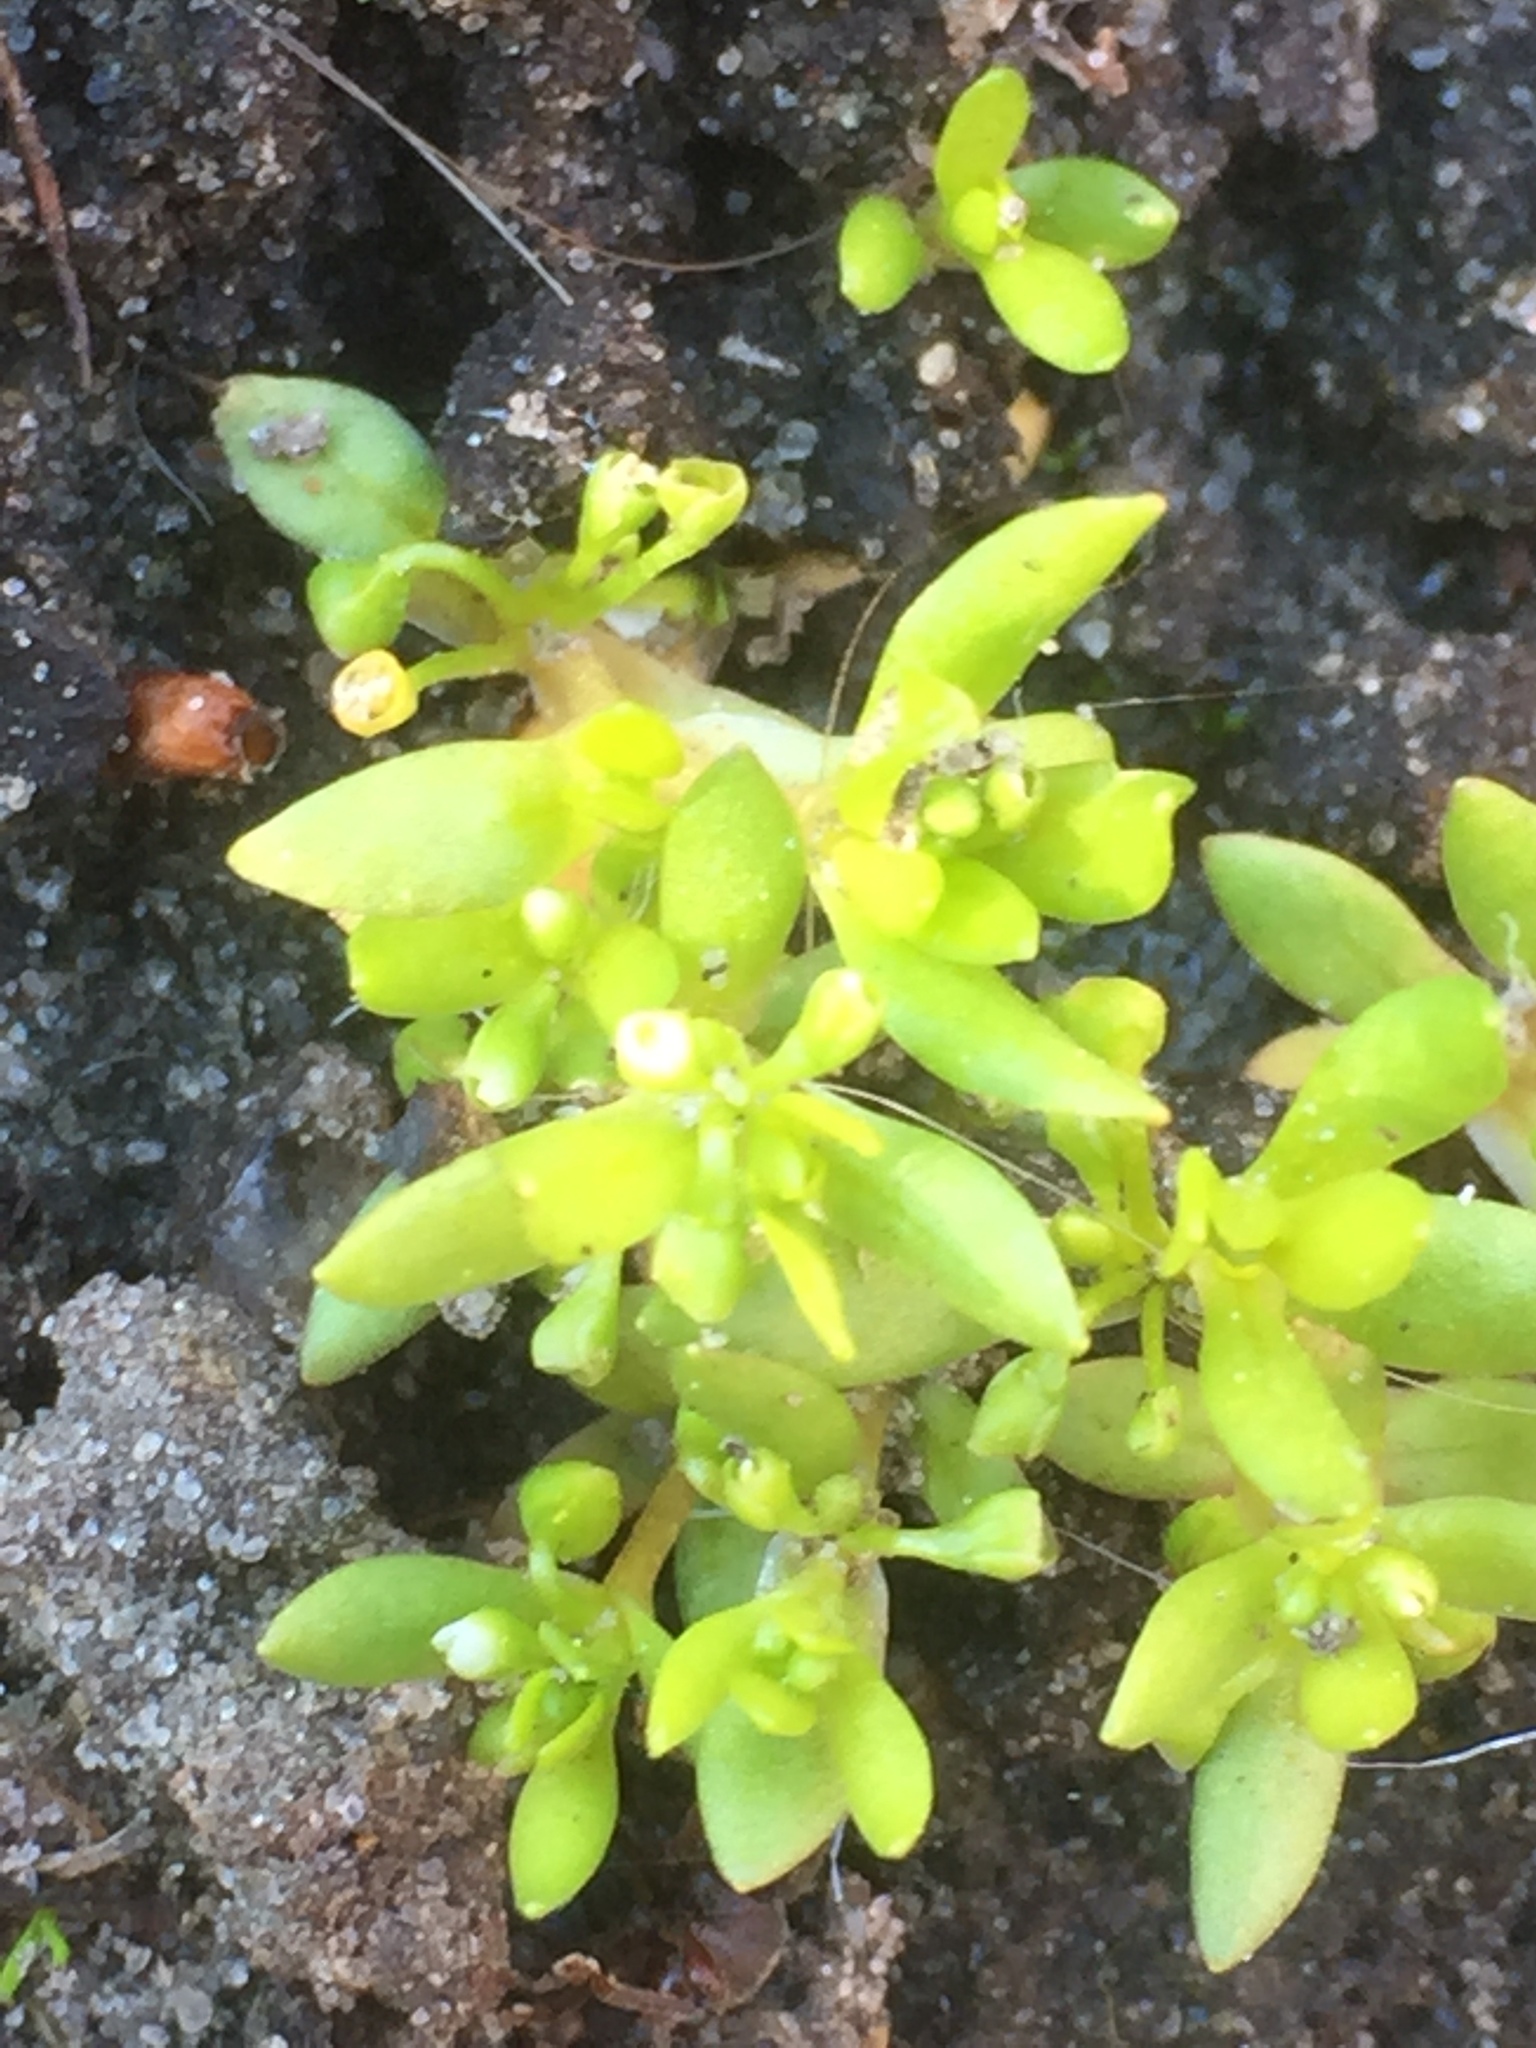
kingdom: Plantae
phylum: Tracheophyta
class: Magnoliopsida
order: Caryophyllales
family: Montiaceae
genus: Montia
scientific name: Montia fontana
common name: Blinks
